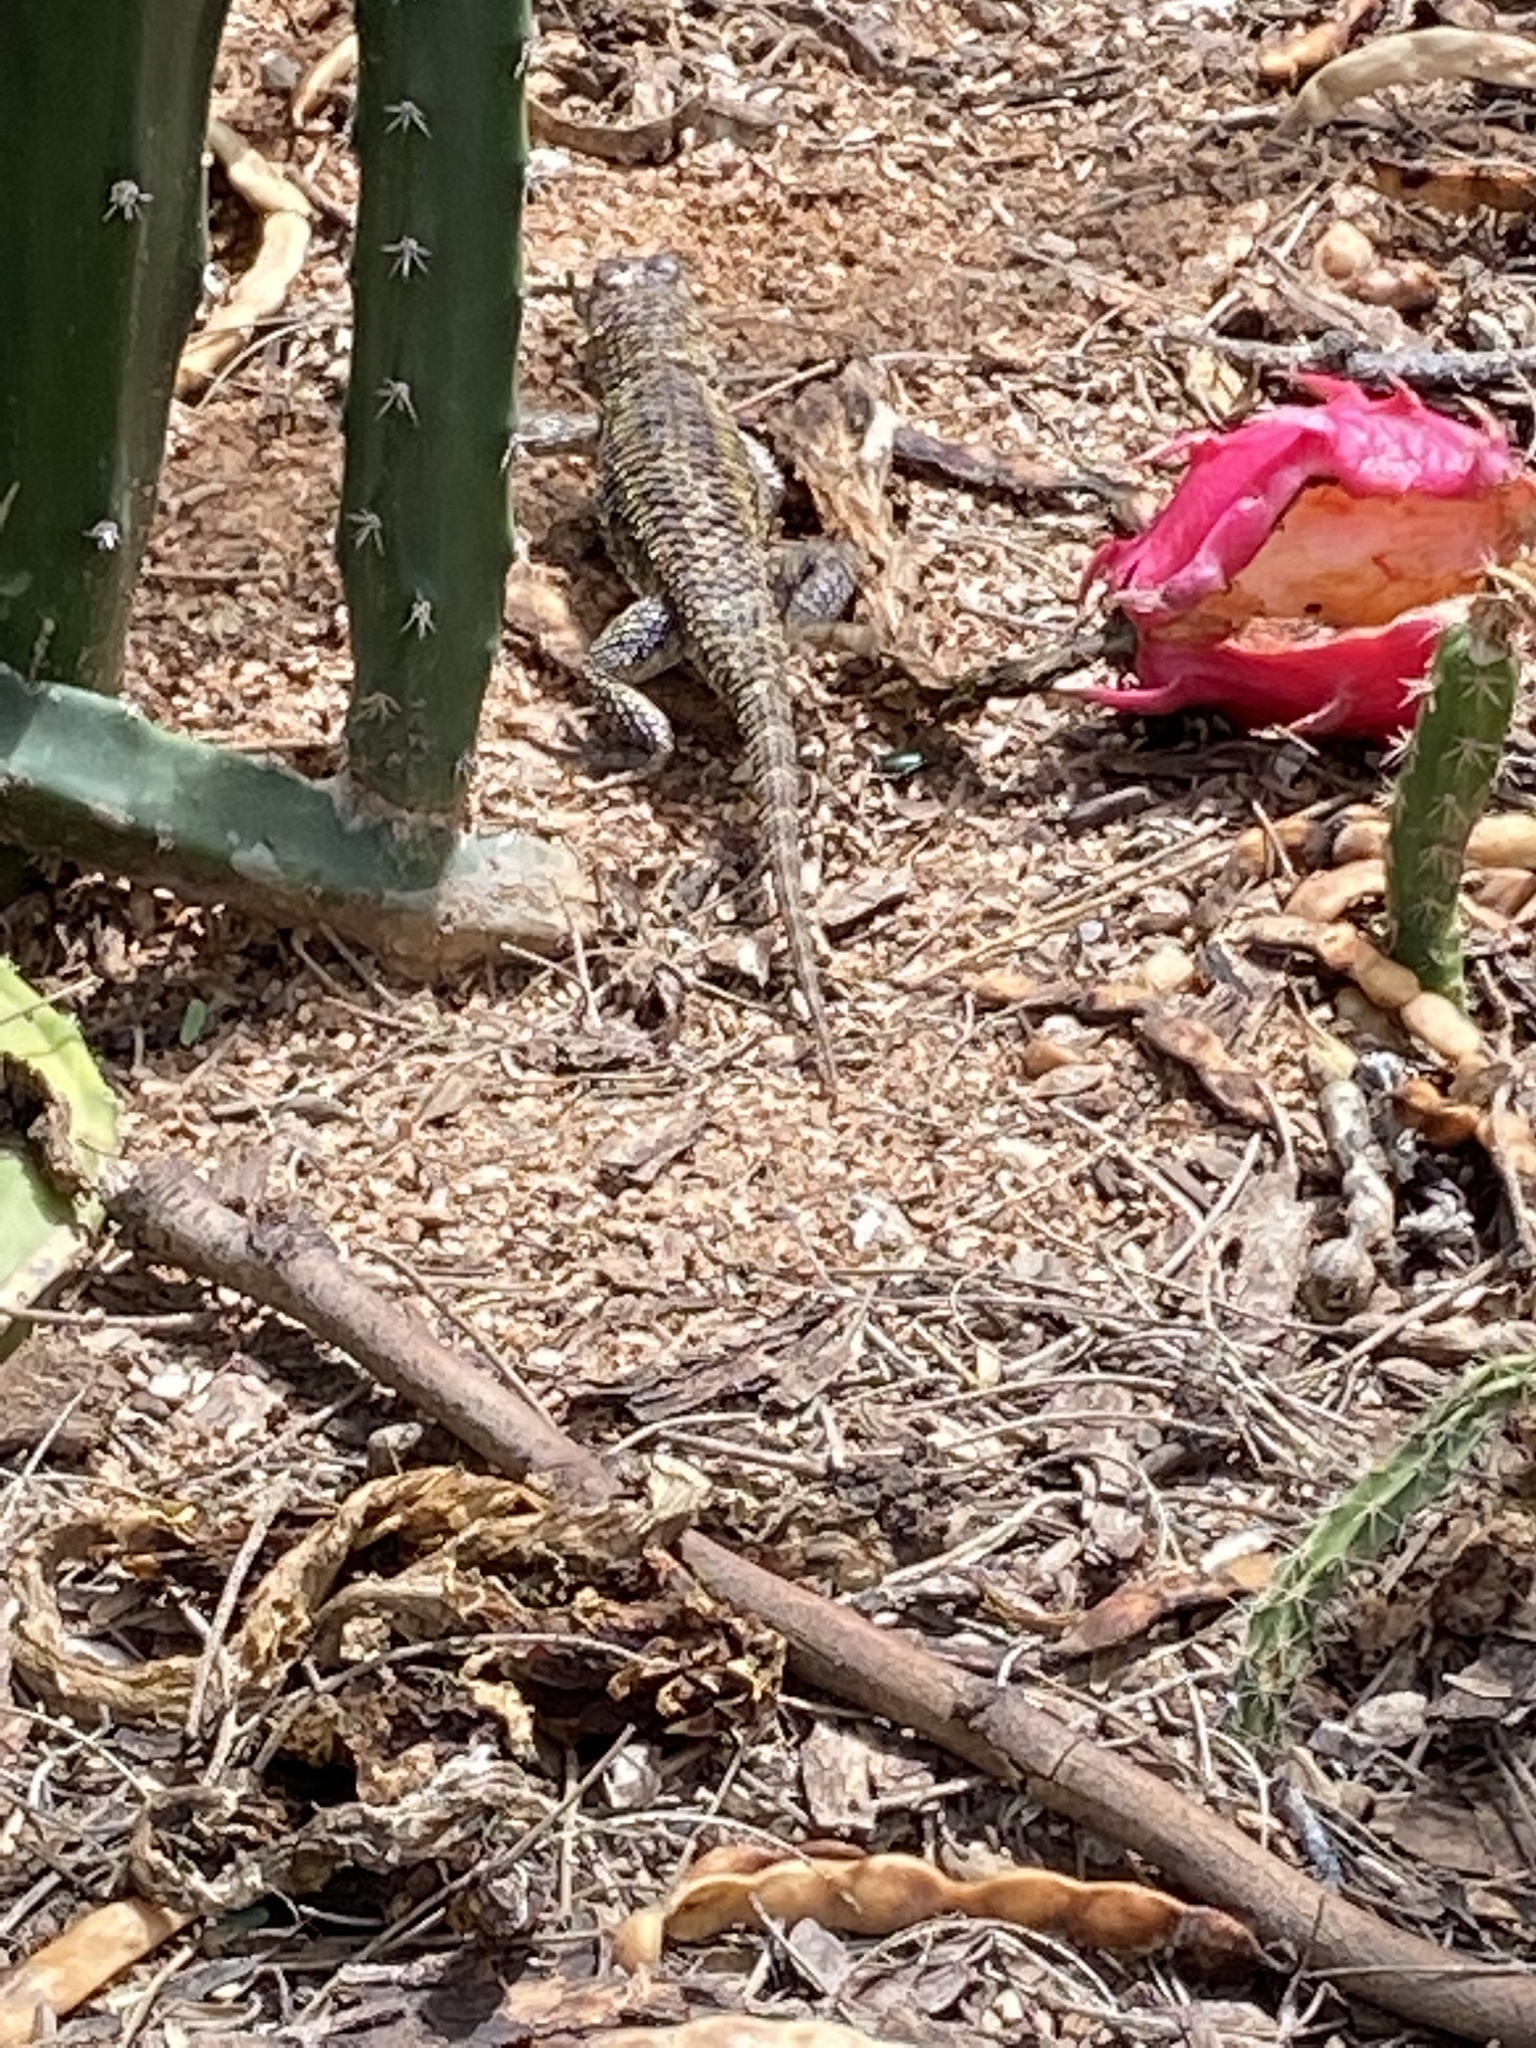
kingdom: Animalia
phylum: Chordata
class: Squamata
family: Phrynosomatidae
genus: Sceloporus
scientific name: Sceloporus magister
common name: Desert spiny lizard
